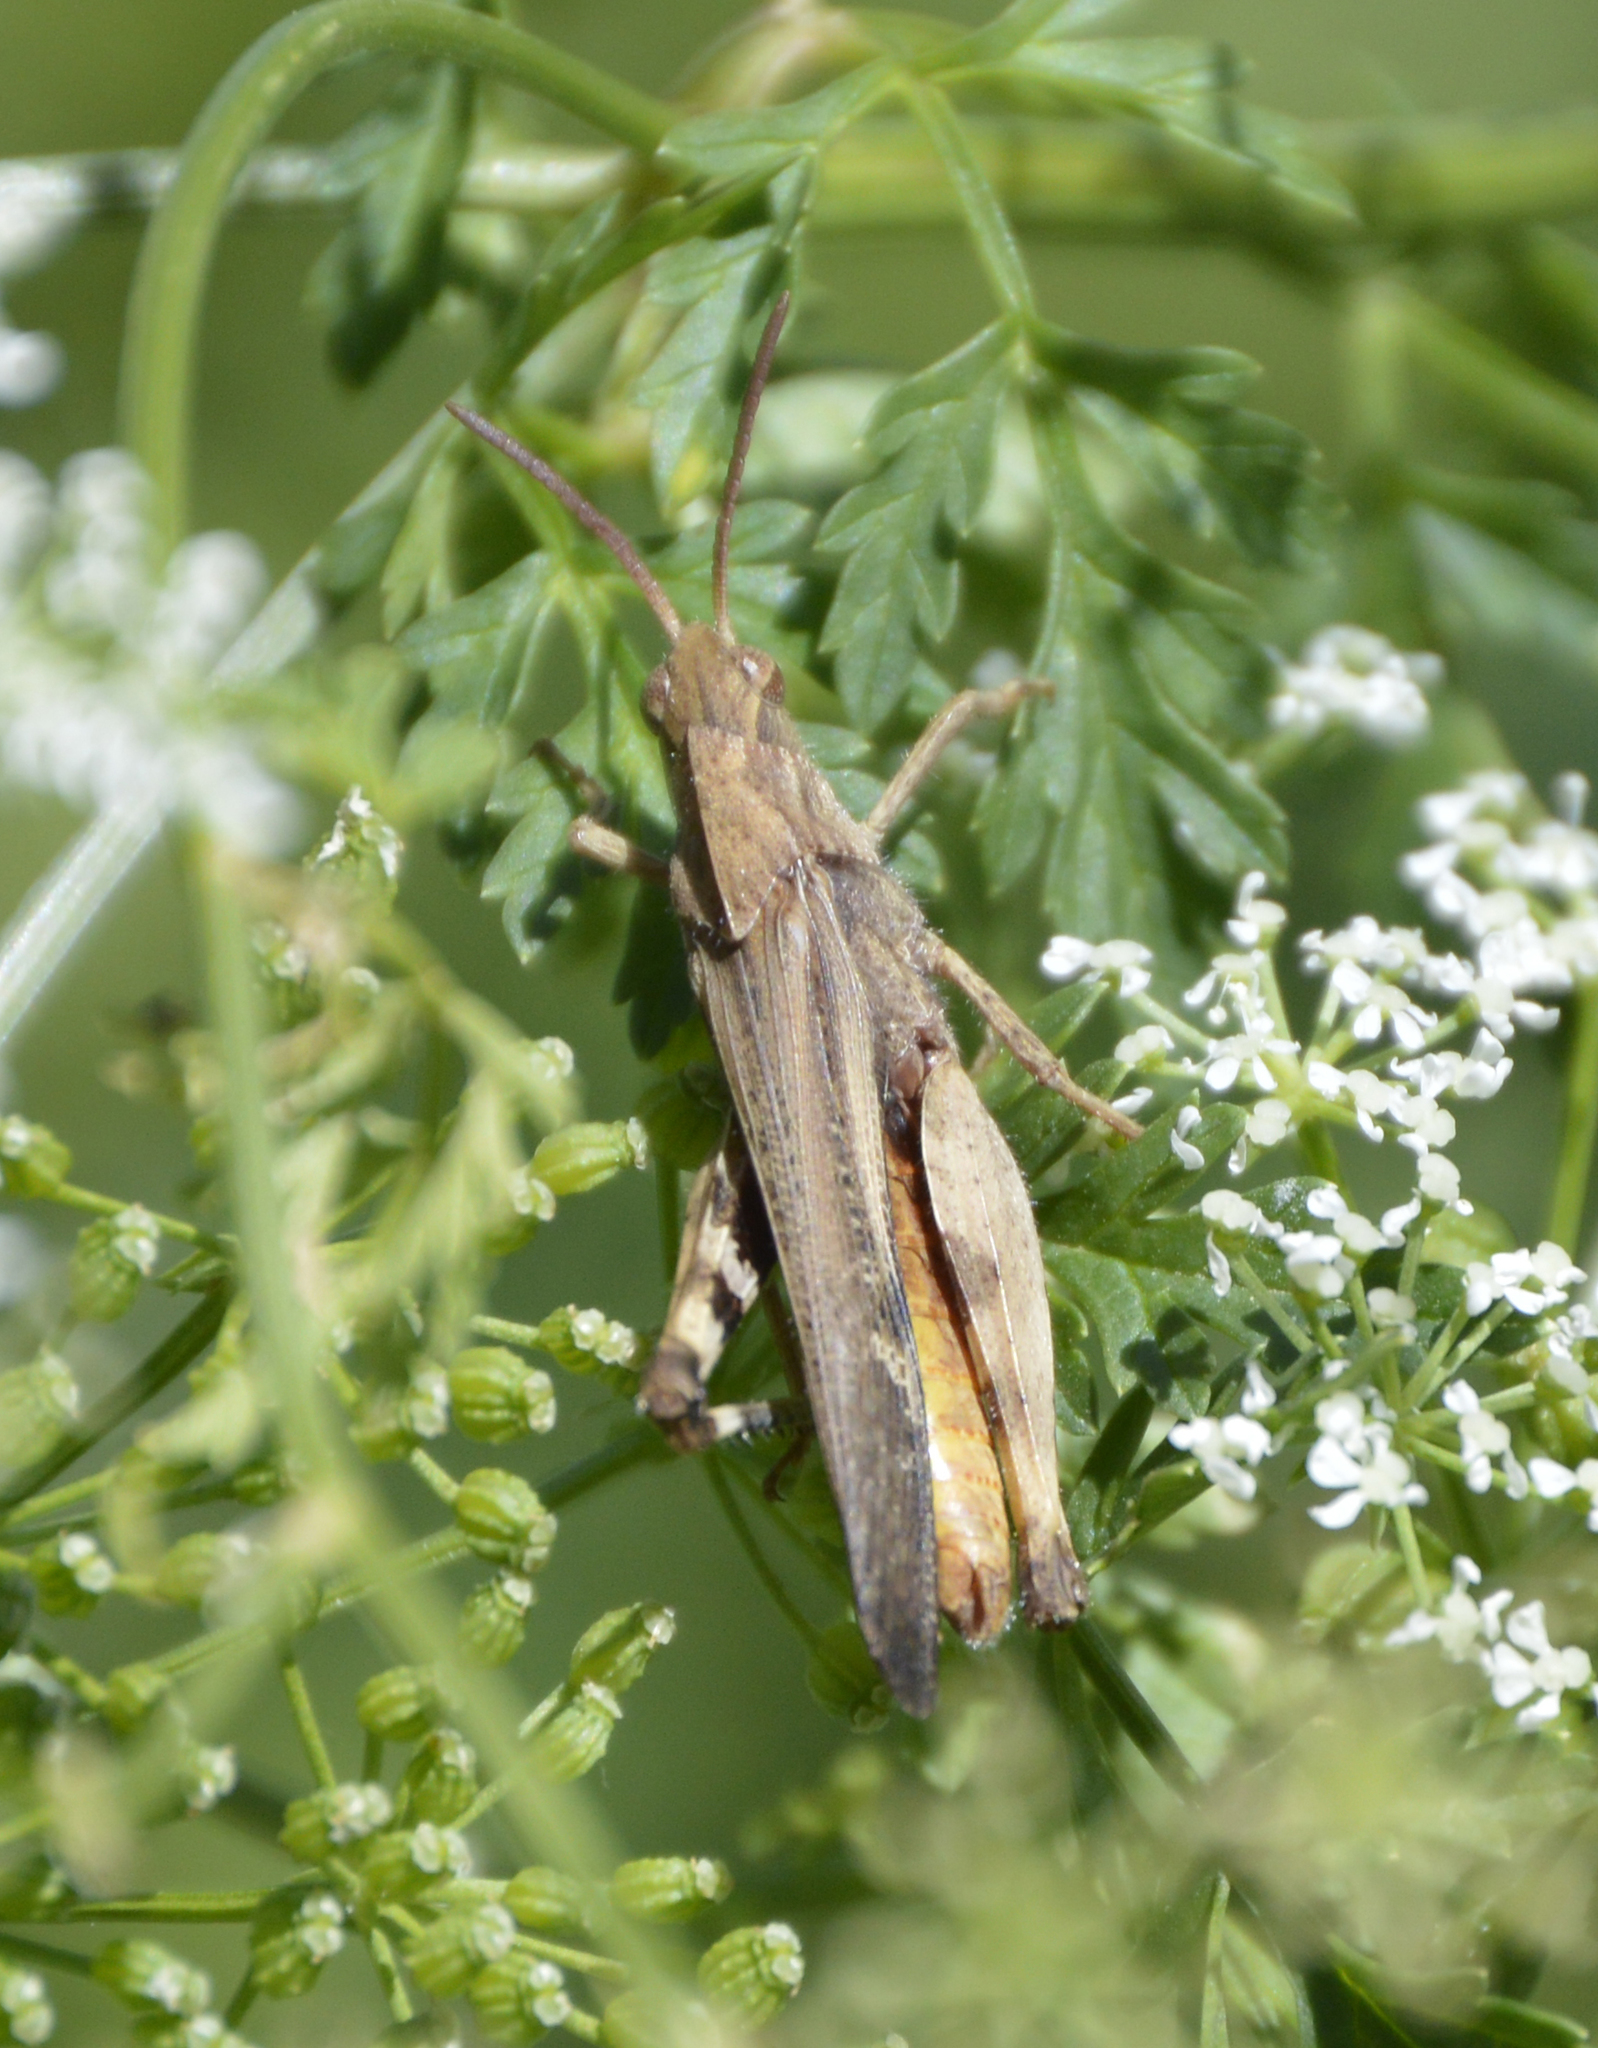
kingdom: Animalia
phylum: Arthropoda
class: Insecta
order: Orthoptera
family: Acrididae
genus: Chortophaga
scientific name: Chortophaga viridifasciata
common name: Green-striped grasshopper
